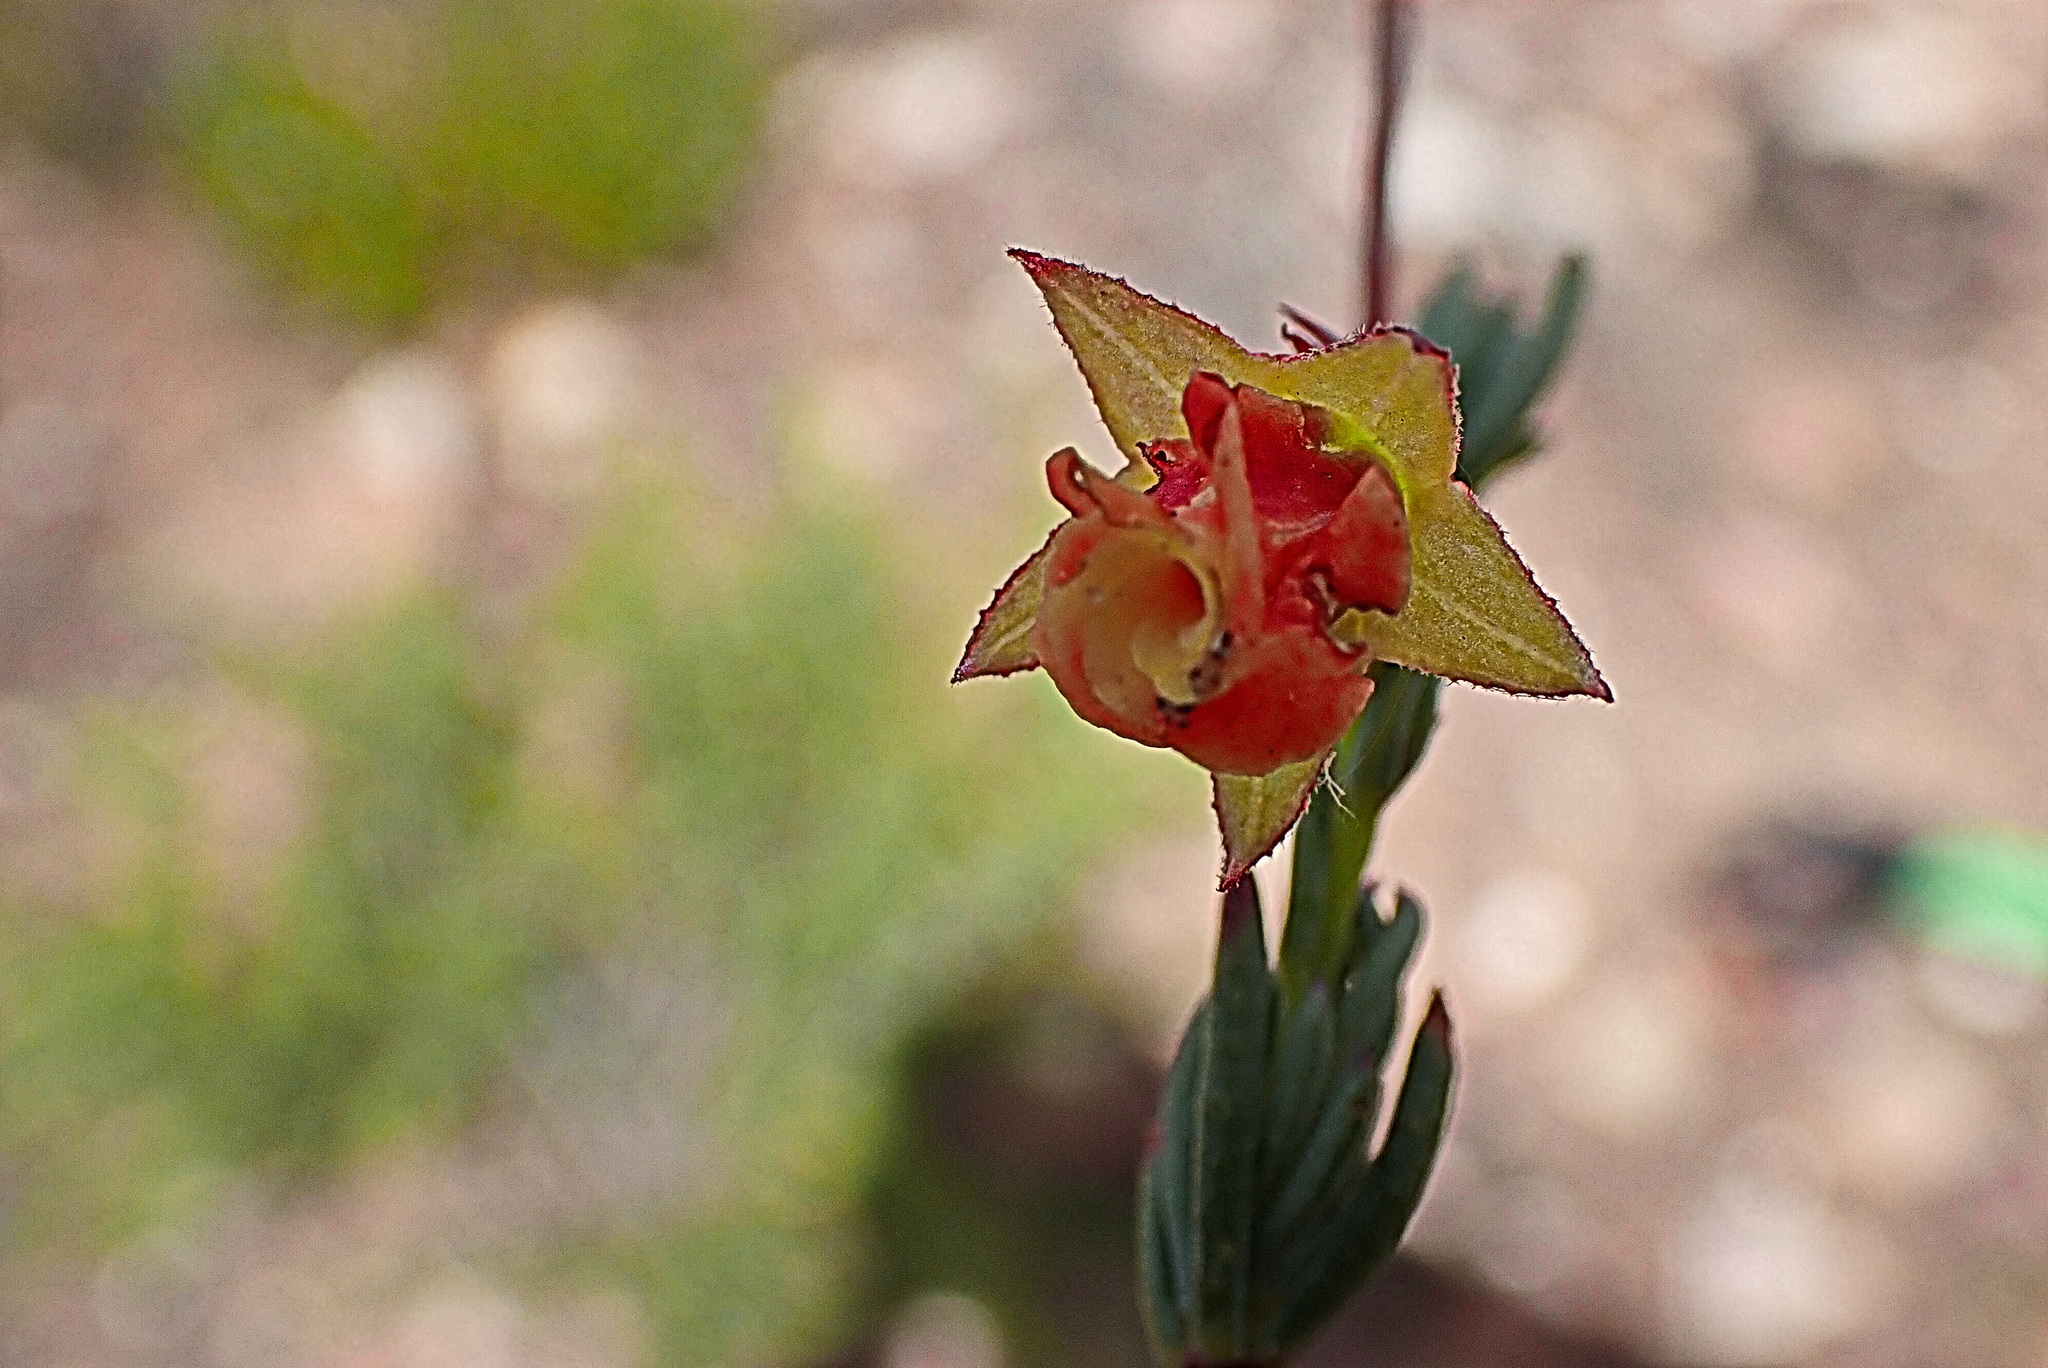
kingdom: Plantae
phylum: Tracheophyta
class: Magnoliopsida
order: Malvales
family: Malvaceae
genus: Hermannia
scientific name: Hermannia filifolia
